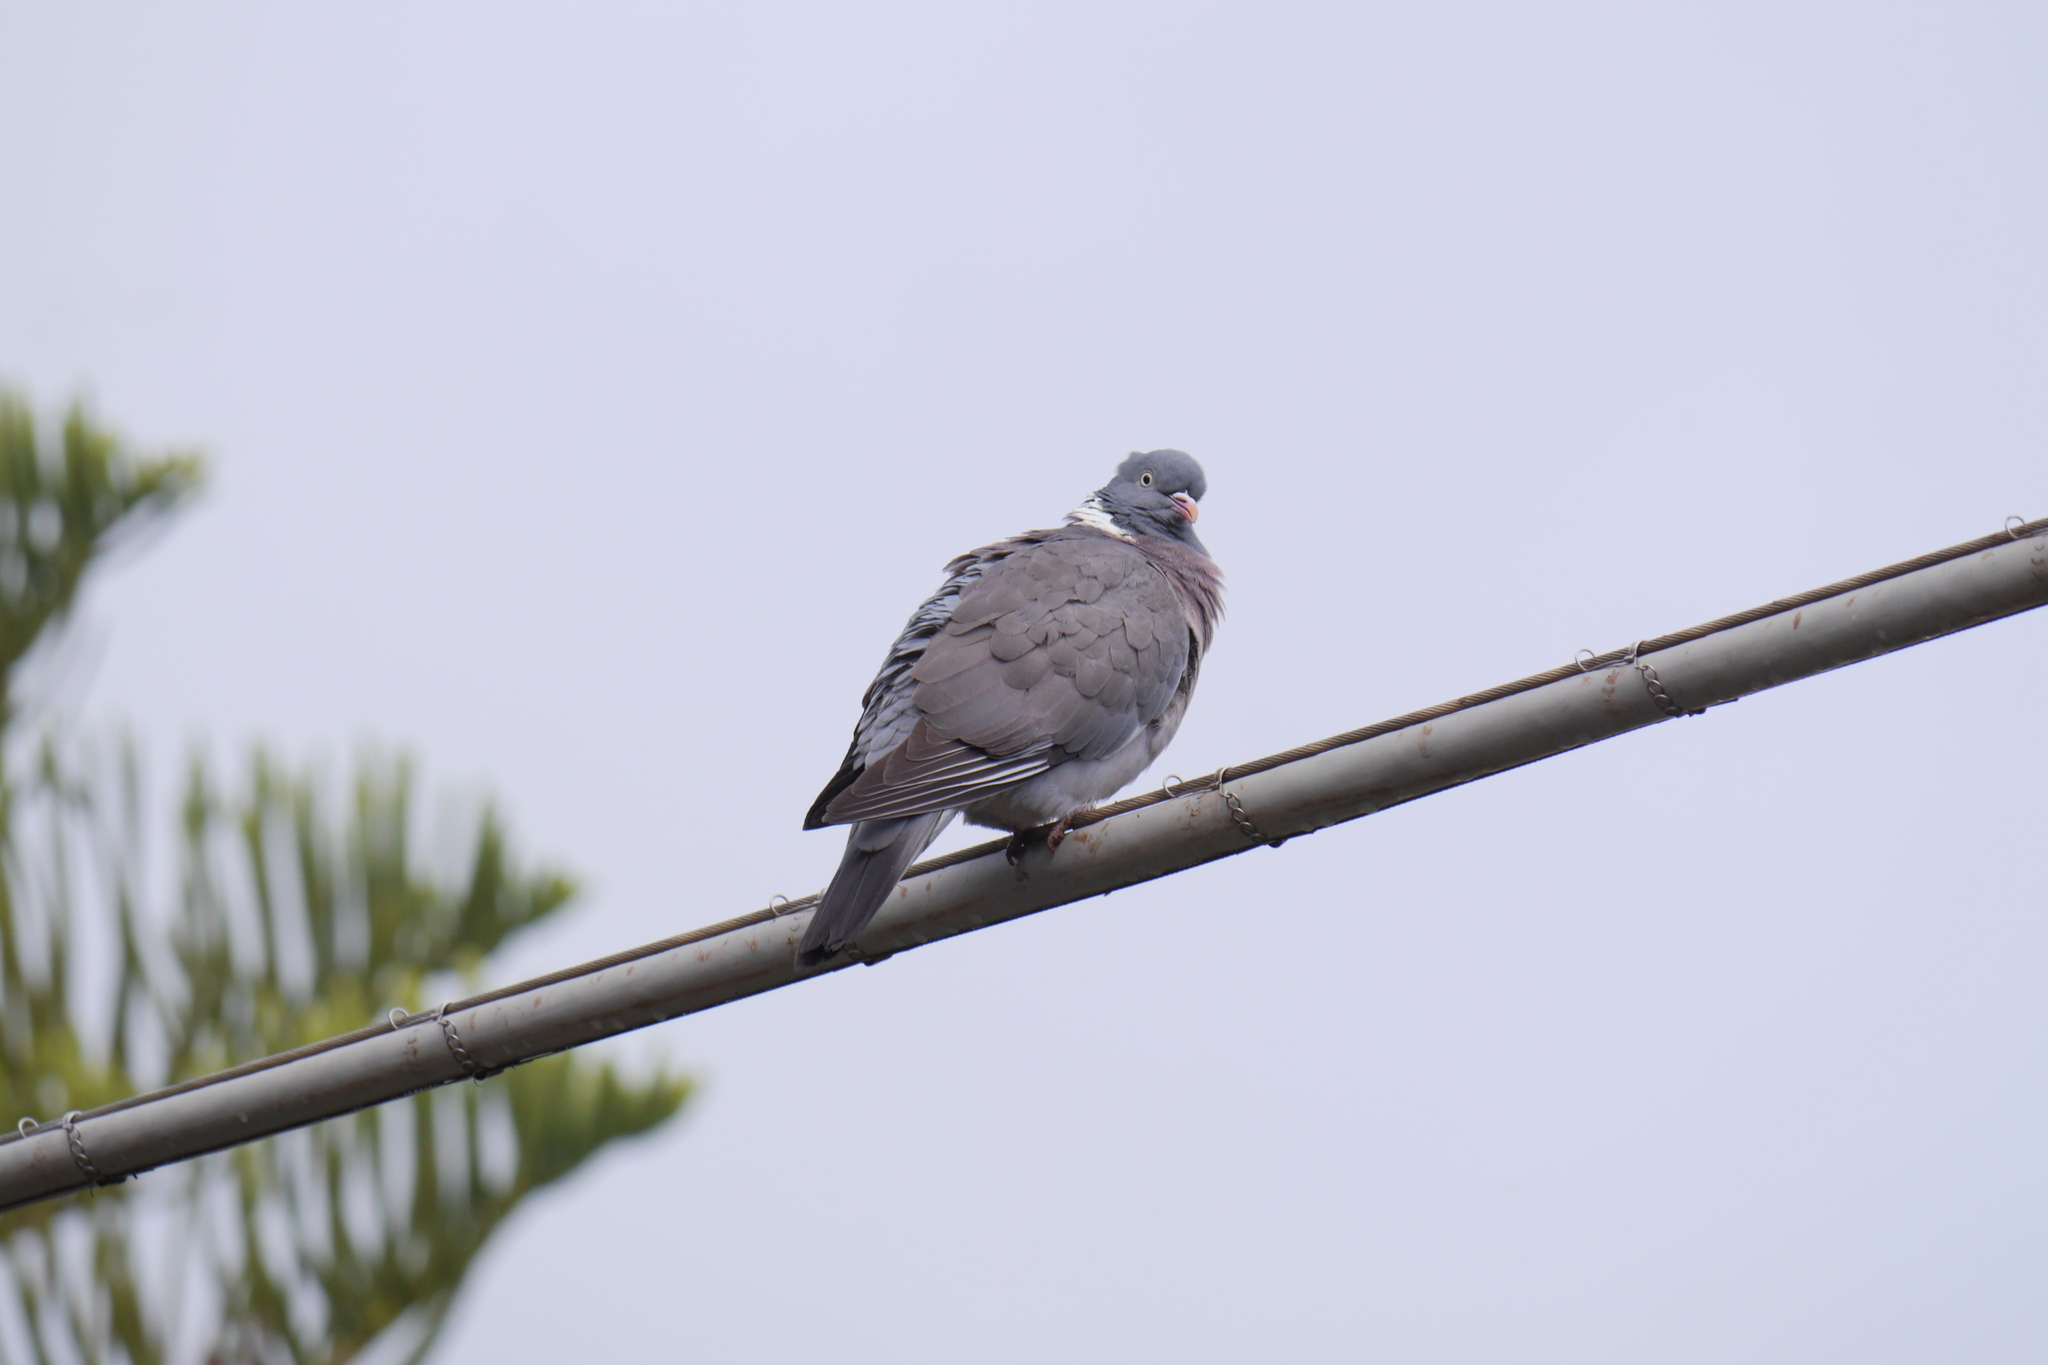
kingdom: Animalia
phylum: Chordata
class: Aves
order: Columbiformes
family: Columbidae
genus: Columba
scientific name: Columba palumbus
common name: Common wood pigeon
